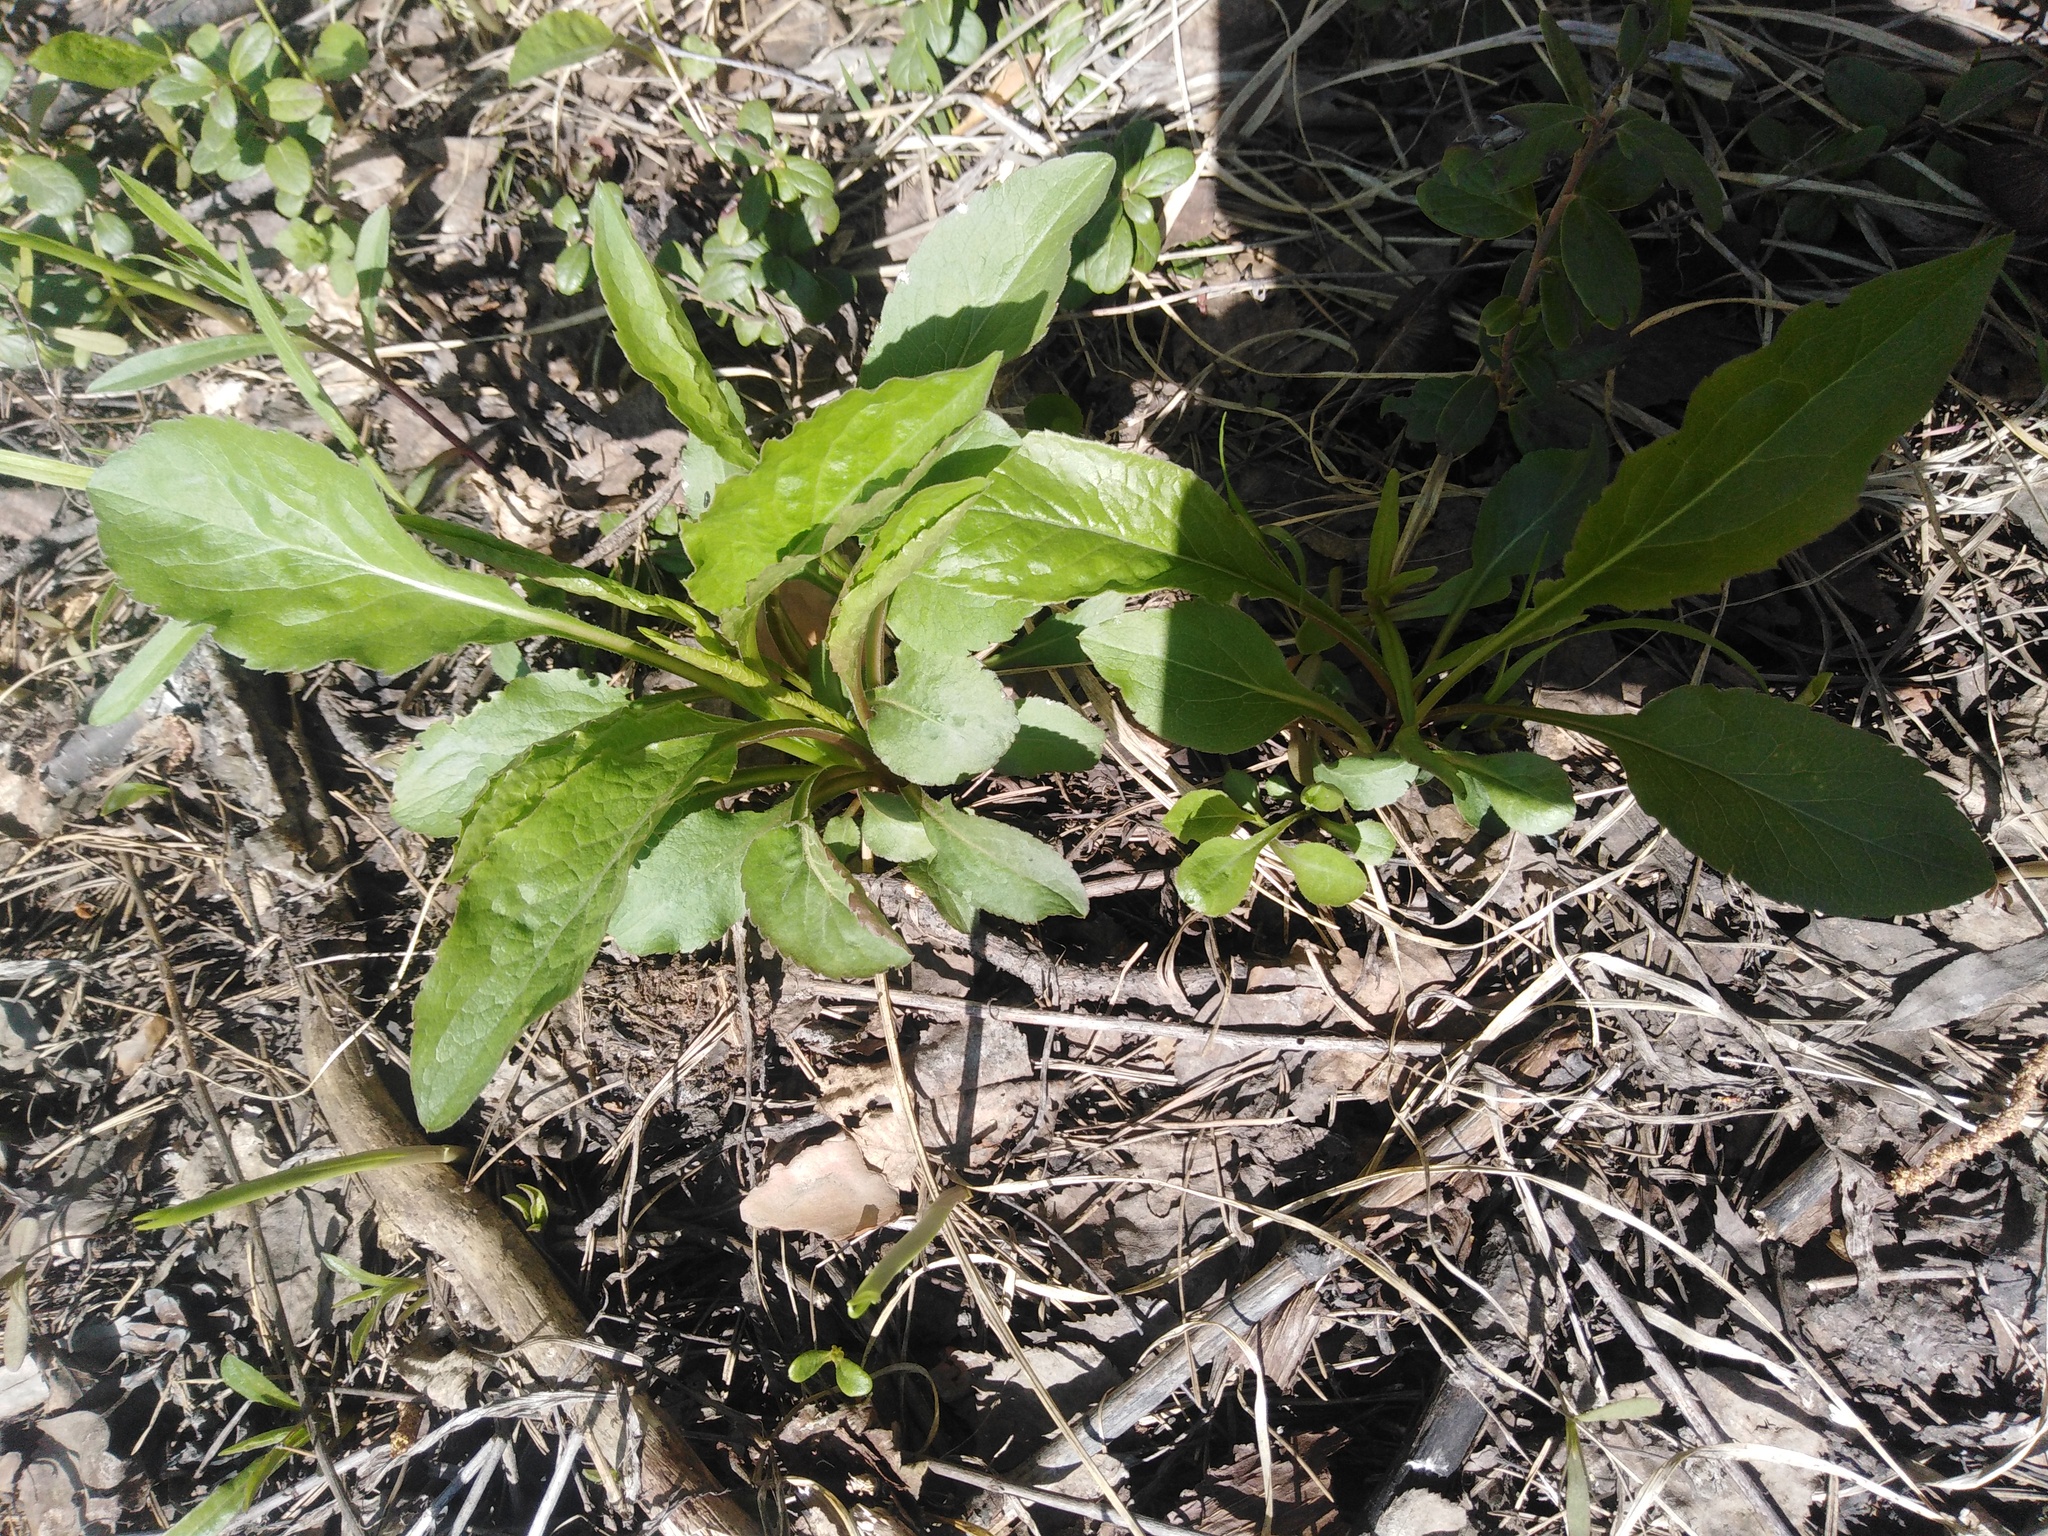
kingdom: Plantae
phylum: Tracheophyta
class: Magnoliopsida
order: Asterales
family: Asteraceae
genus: Solidago
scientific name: Solidago virgaurea
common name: Goldenrod
